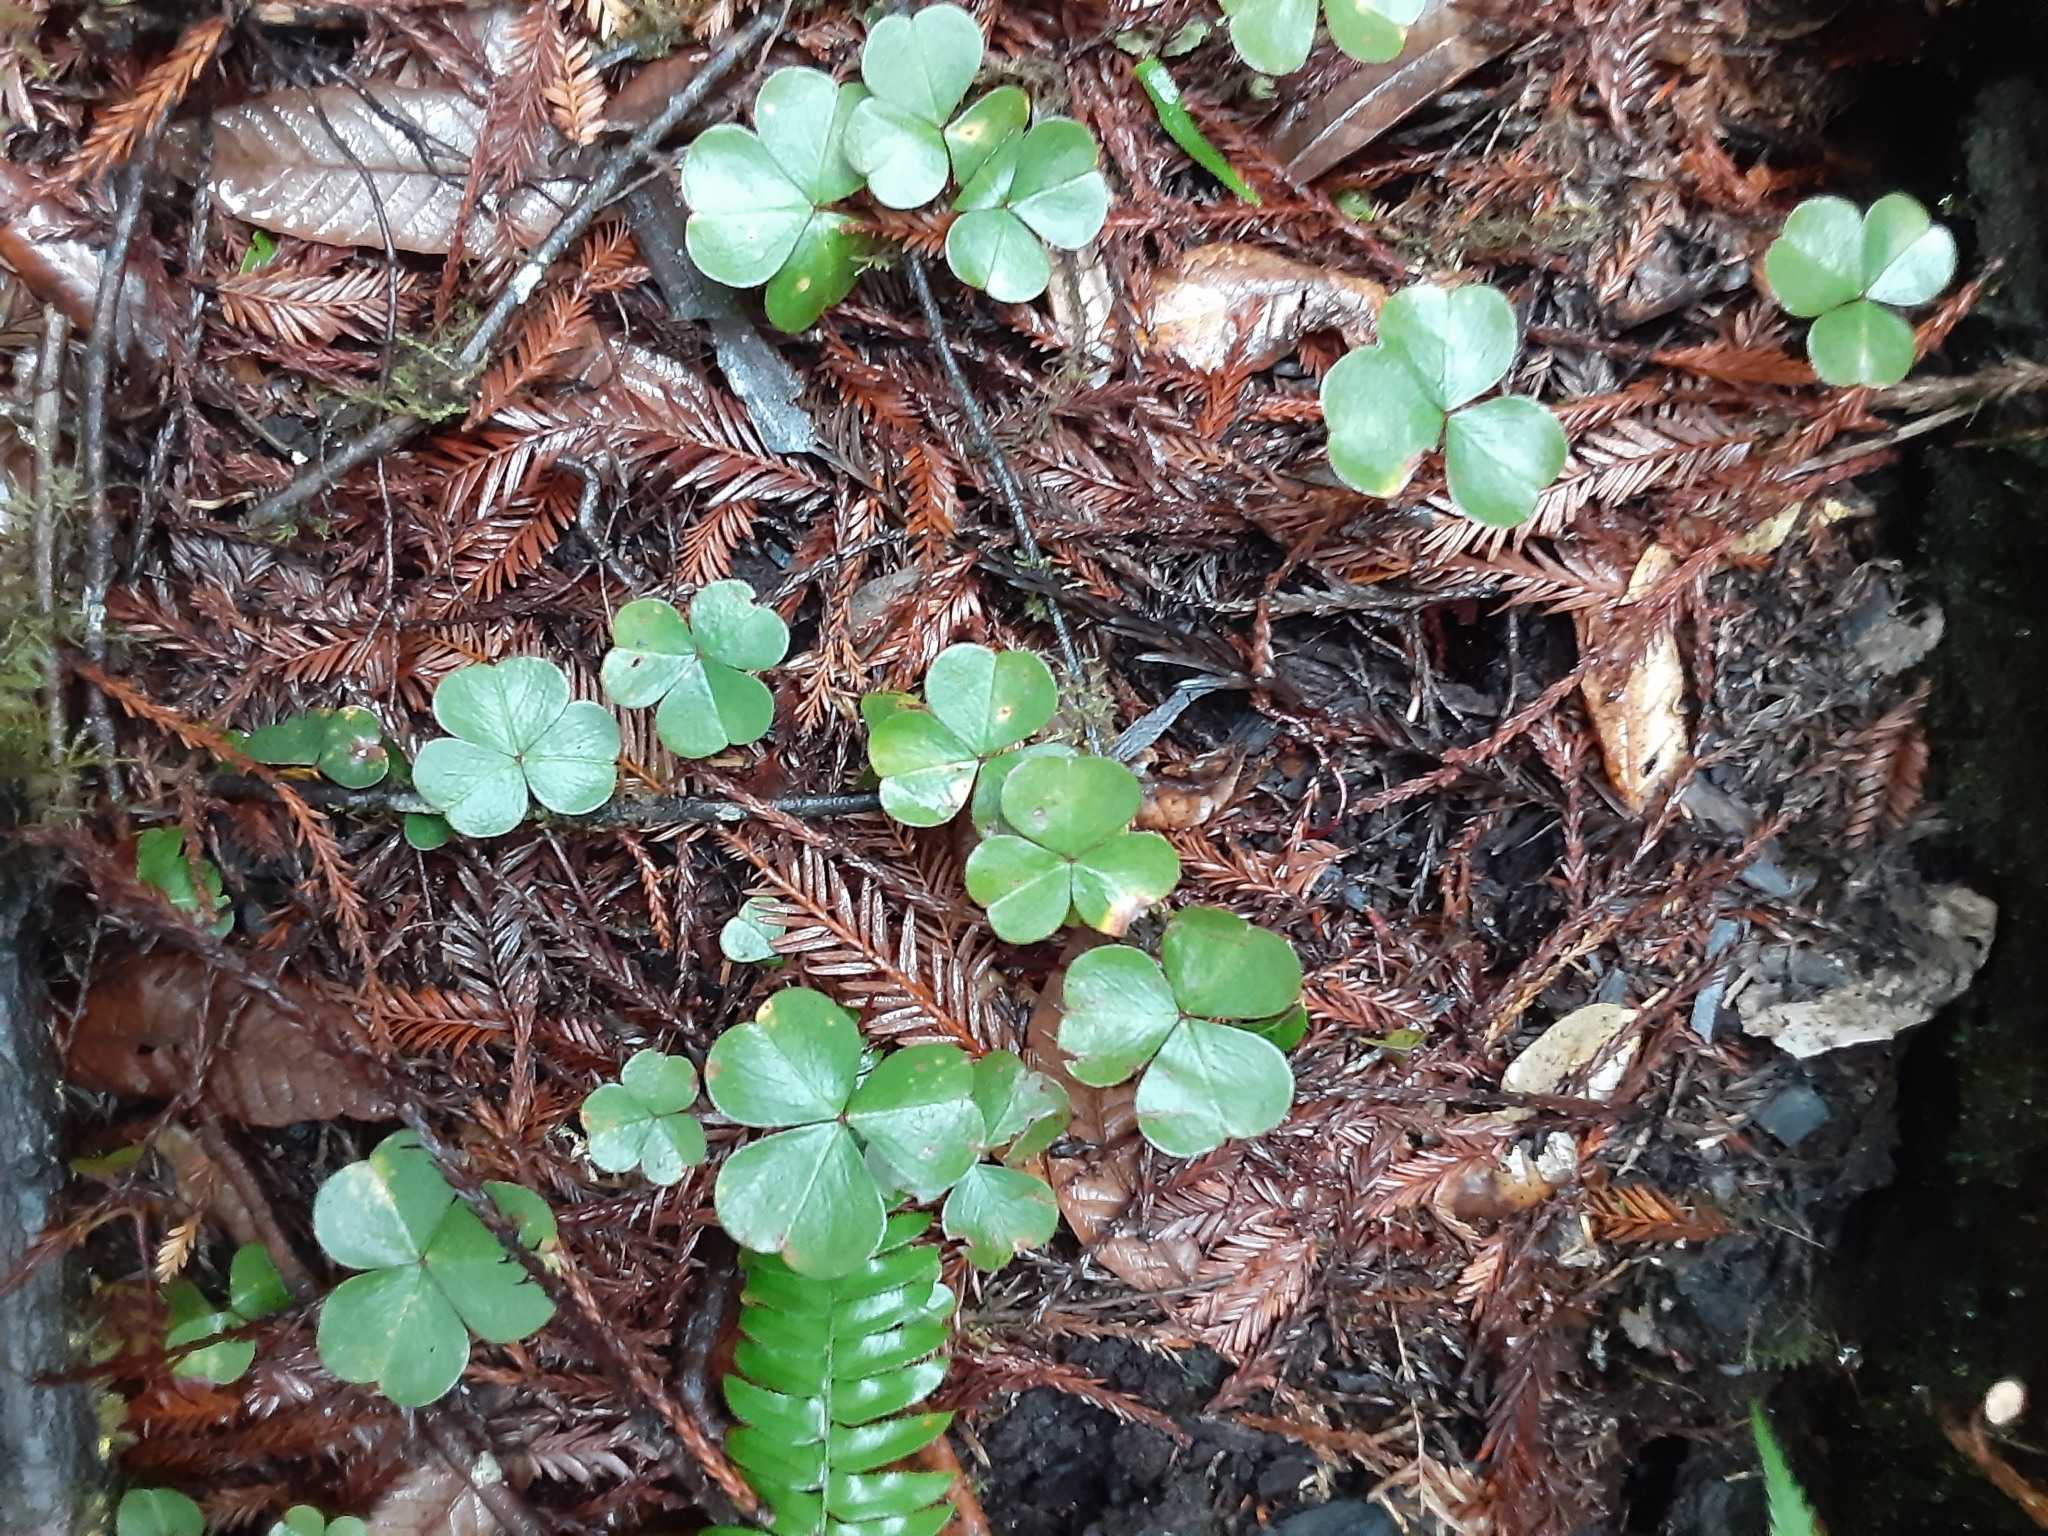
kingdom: Plantae
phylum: Tracheophyta
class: Magnoliopsida
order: Oxalidales
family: Oxalidaceae
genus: Oxalis
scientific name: Oxalis oregana
